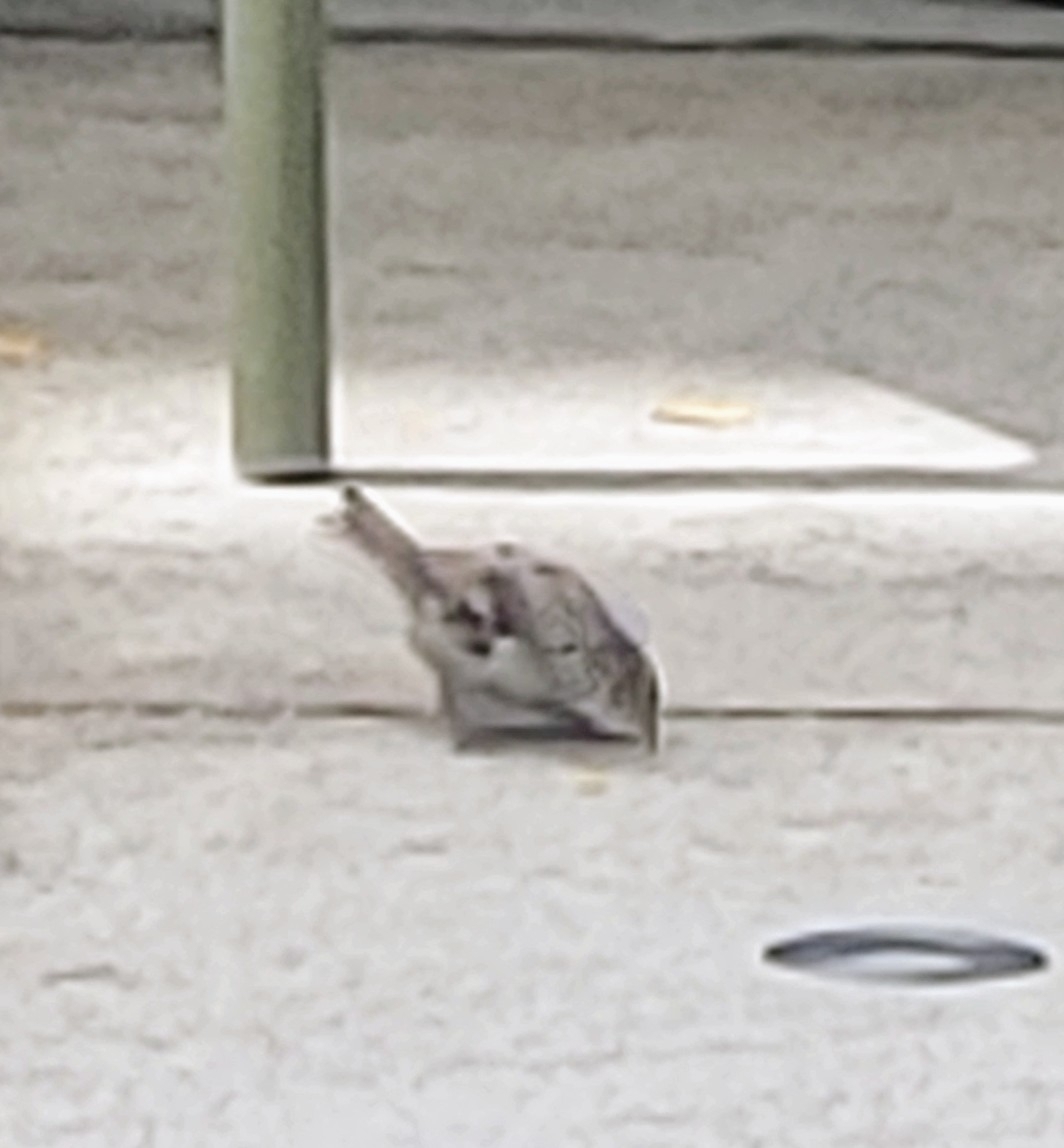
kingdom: Animalia
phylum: Chordata
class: Aves
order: Passeriformes
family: Passeridae
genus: Passer
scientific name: Passer domesticus
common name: House sparrow
